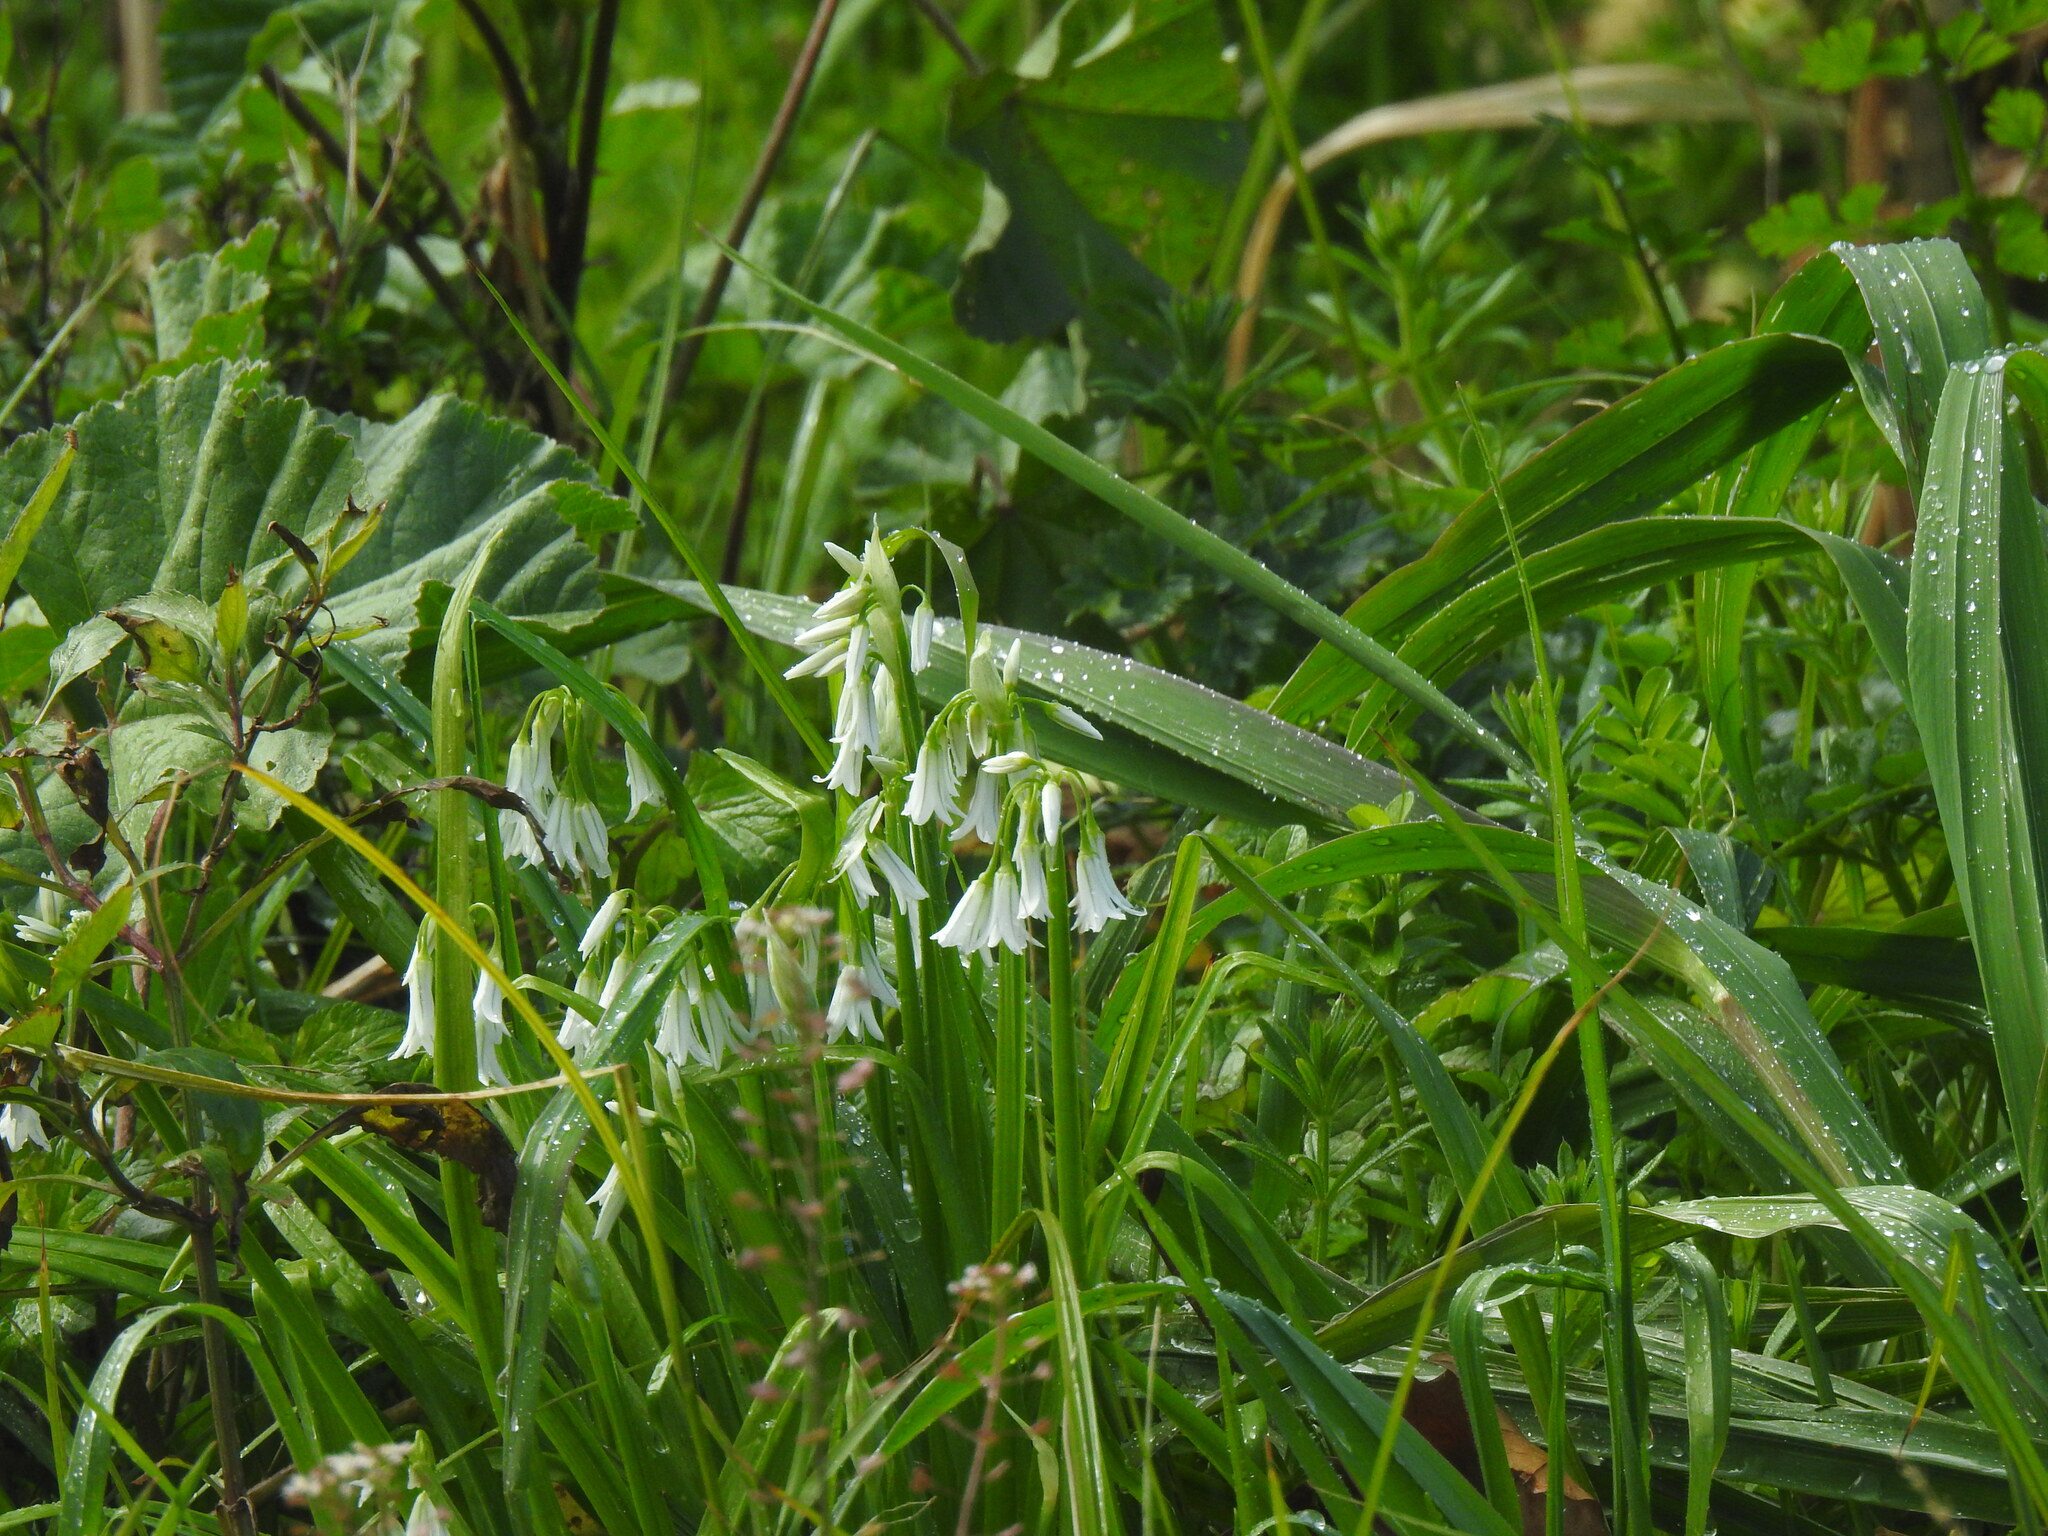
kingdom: Plantae
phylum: Tracheophyta
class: Liliopsida
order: Asparagales
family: Amaryllidaceae
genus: Allium
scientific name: Allium triquetrum
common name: Three-cornered garlic
